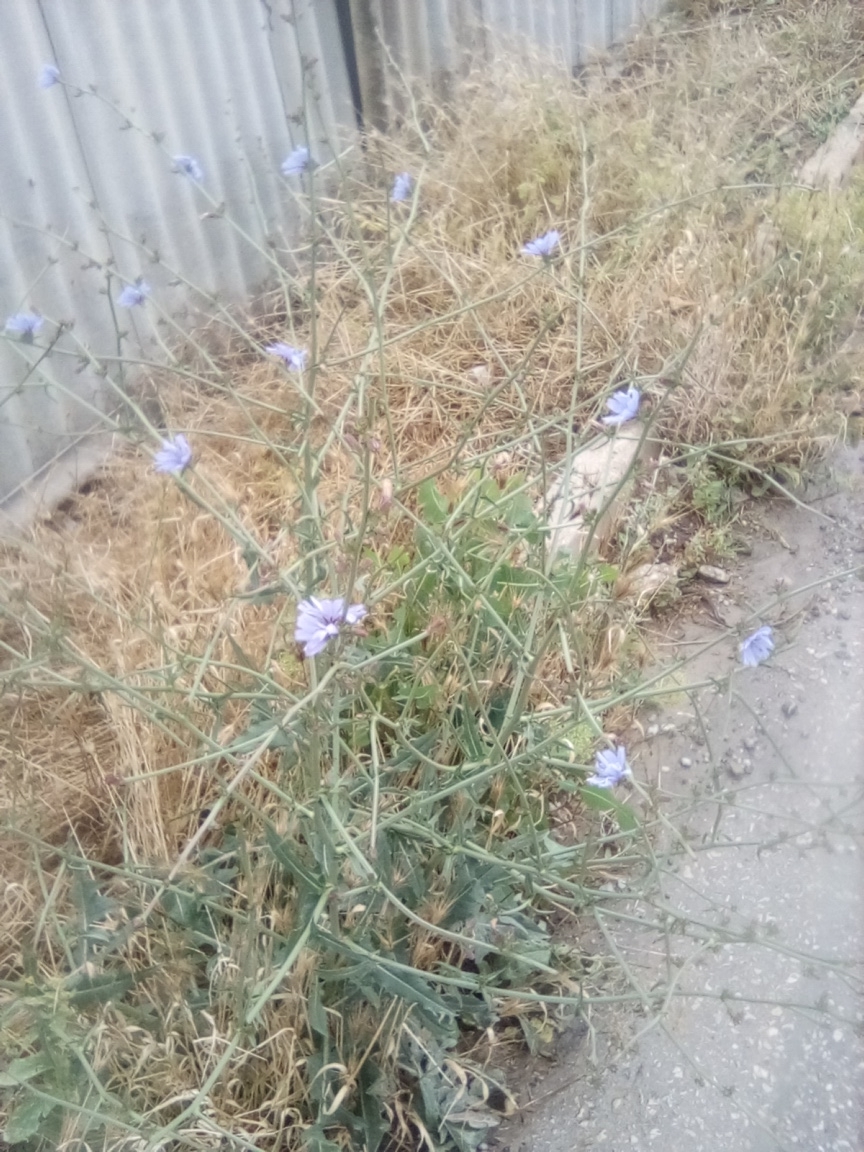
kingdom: Plantae
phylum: Tracheophyta
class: Magnoliopsida
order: Asterales
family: Asteraceae
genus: Cichorium
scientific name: Cichorium intybus
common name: Chicory
